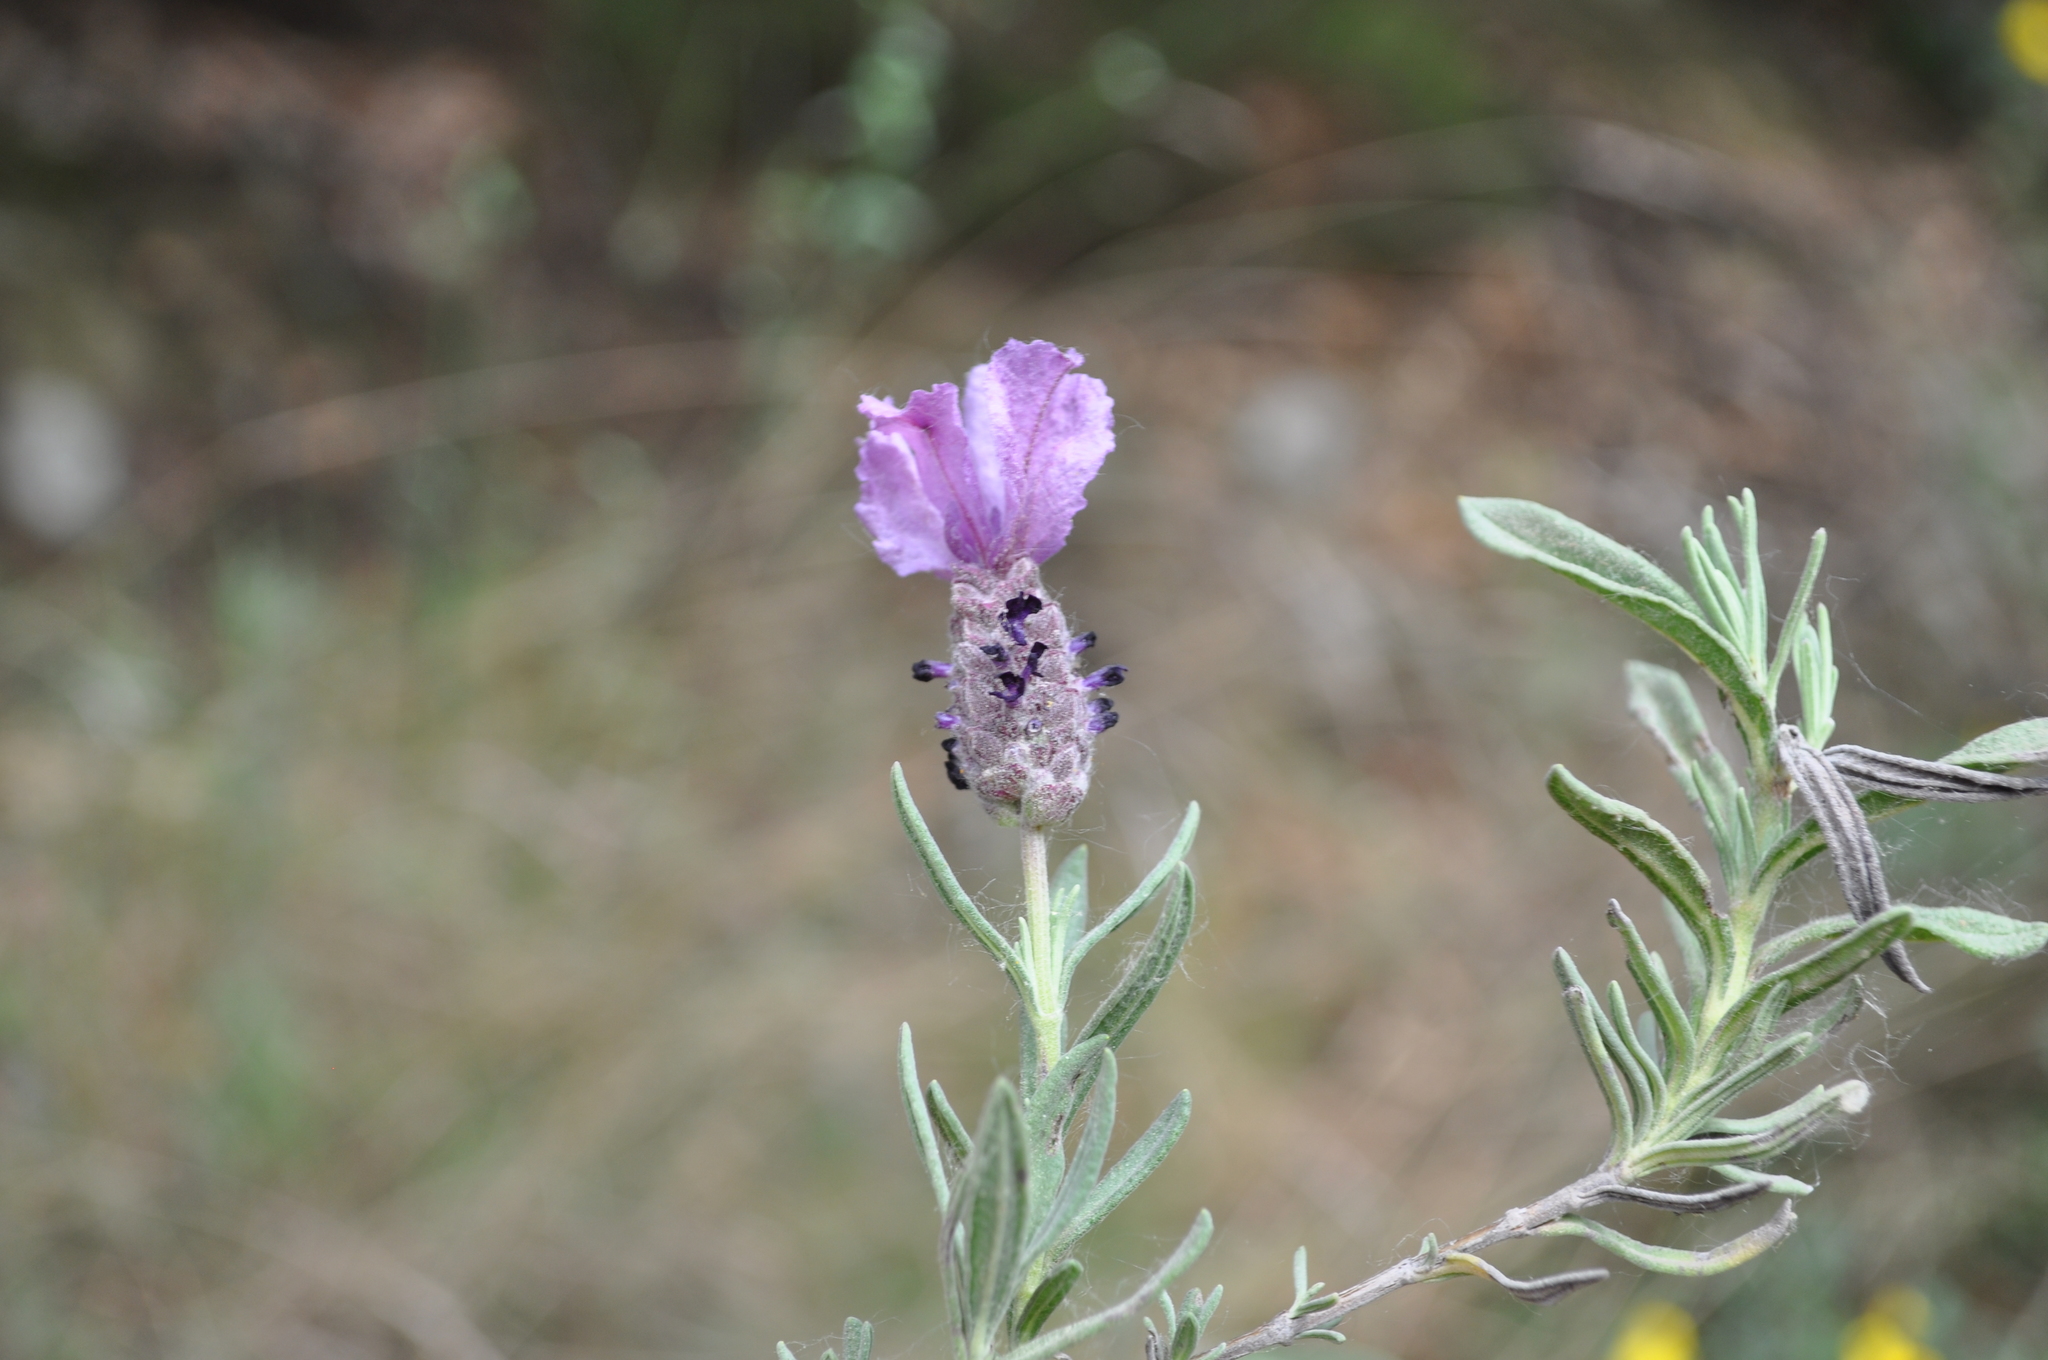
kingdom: Plantae
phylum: Tracheophyta
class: Magnoliopsida
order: Lamiales
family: Lamiaceae
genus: Lavandula
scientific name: Lavandula stoechas
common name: French lavender
